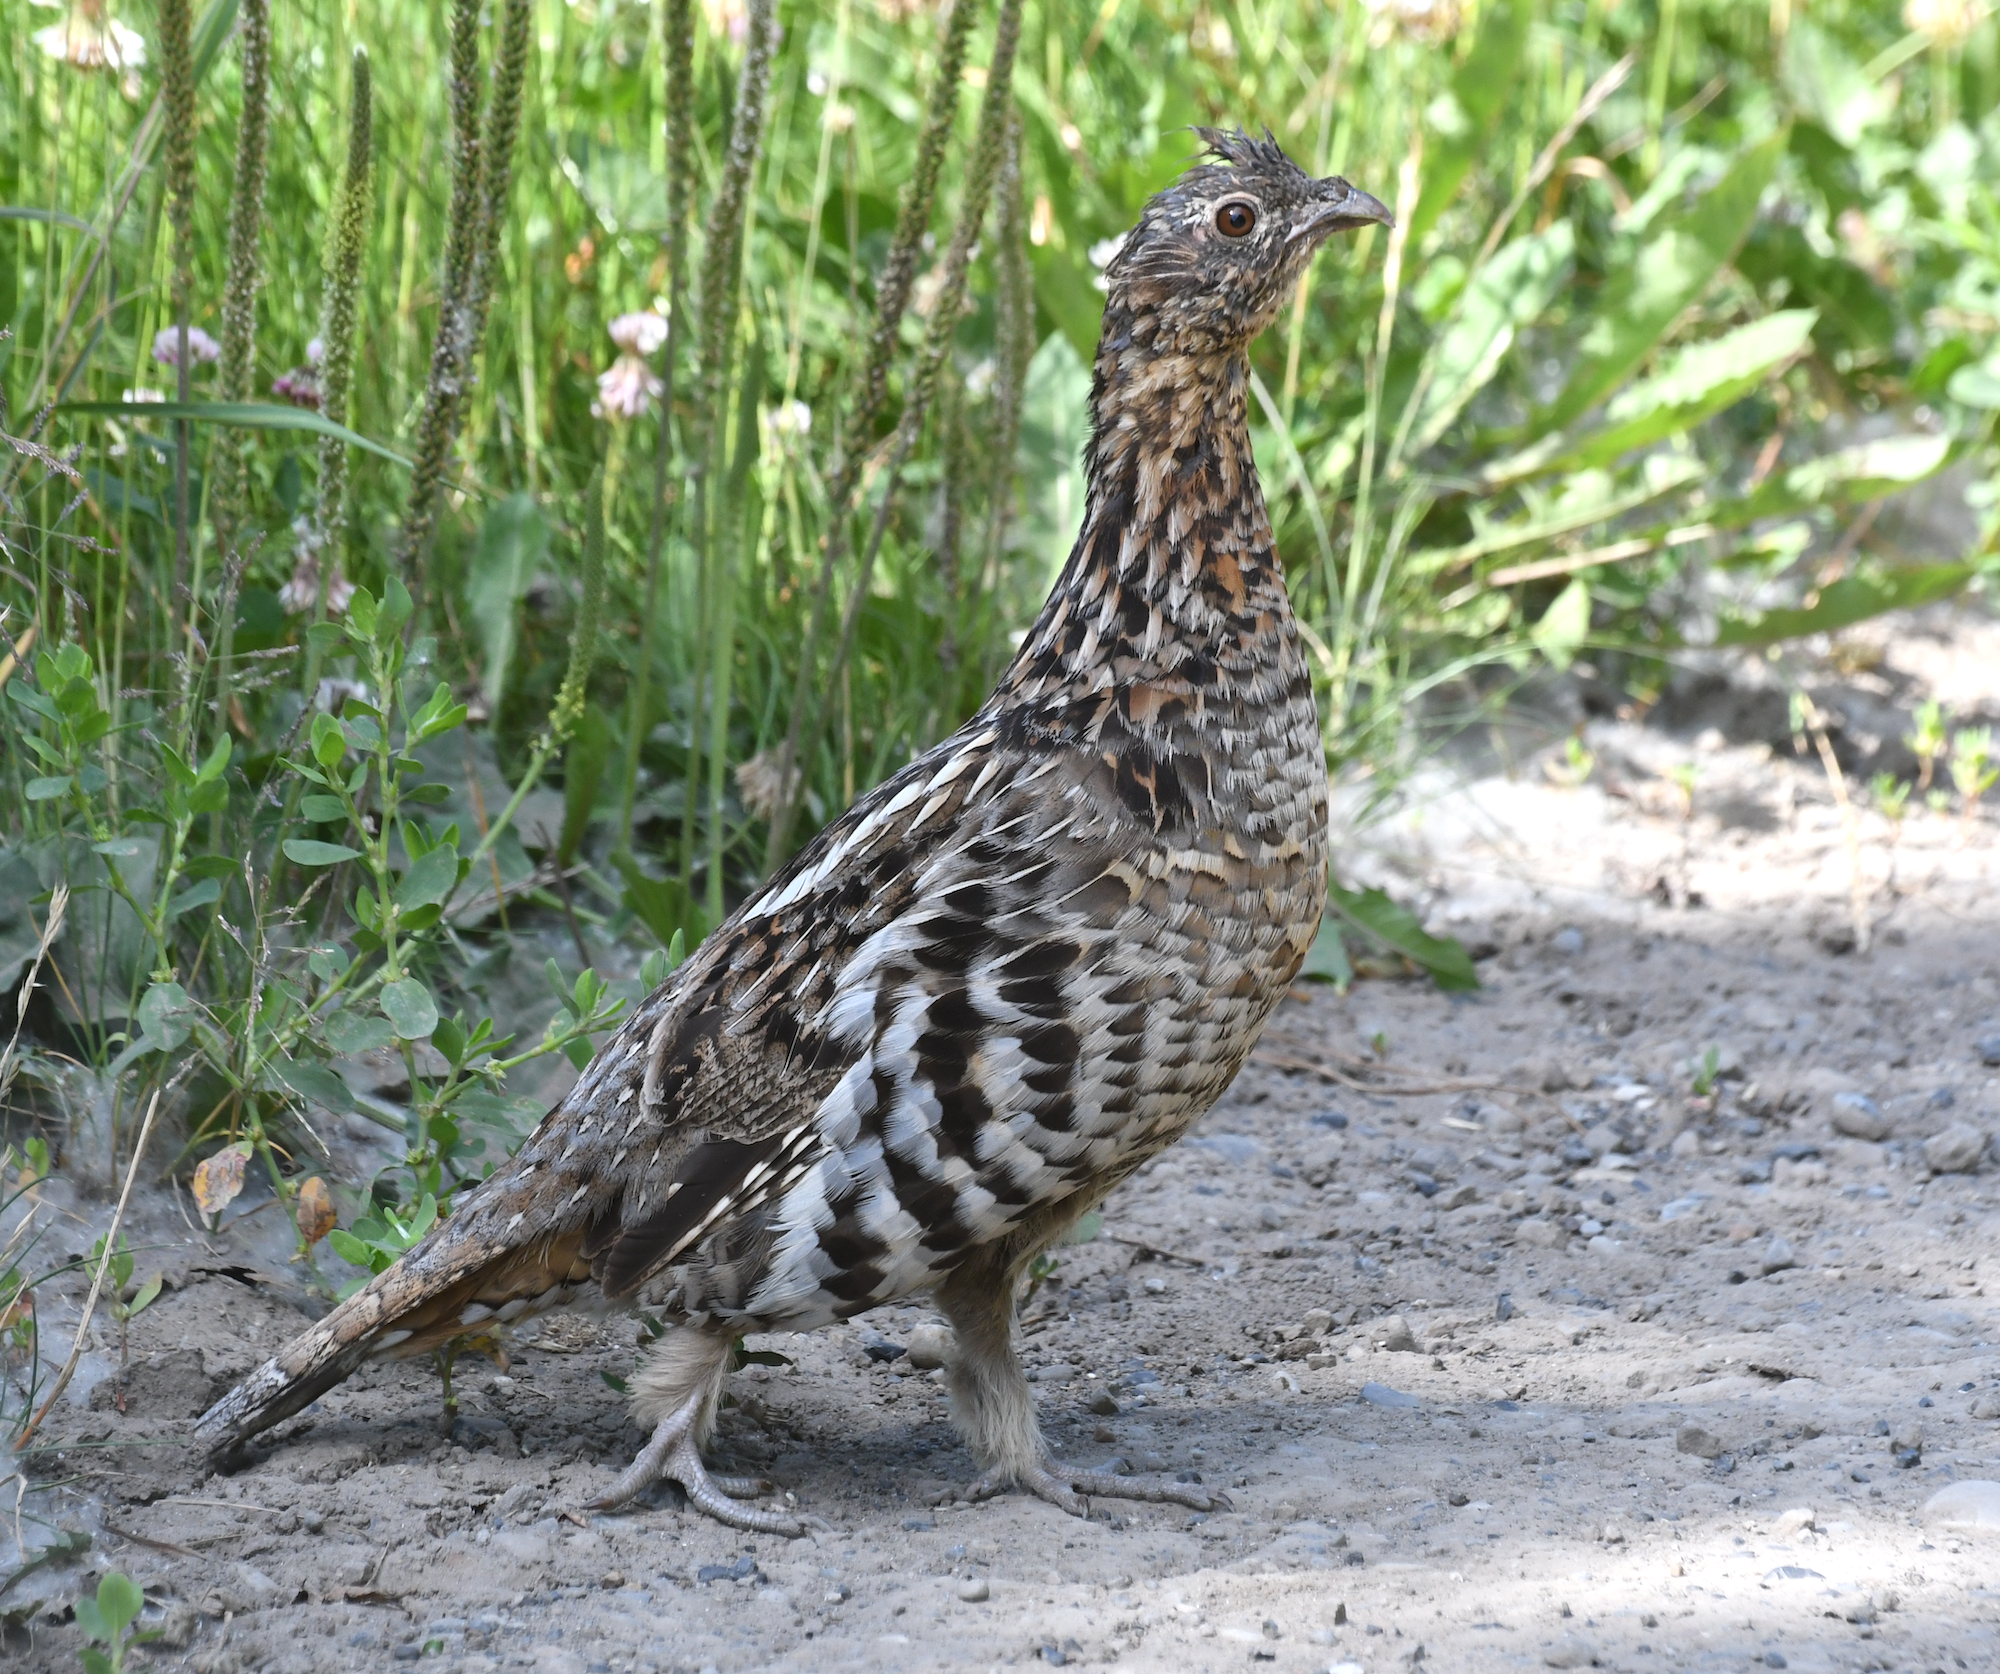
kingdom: Animalia
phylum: Chordata
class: Aves
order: Galliformes
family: Phasianidae
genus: Bonasa
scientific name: Bonasa umbellus
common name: Ruffed grouse
